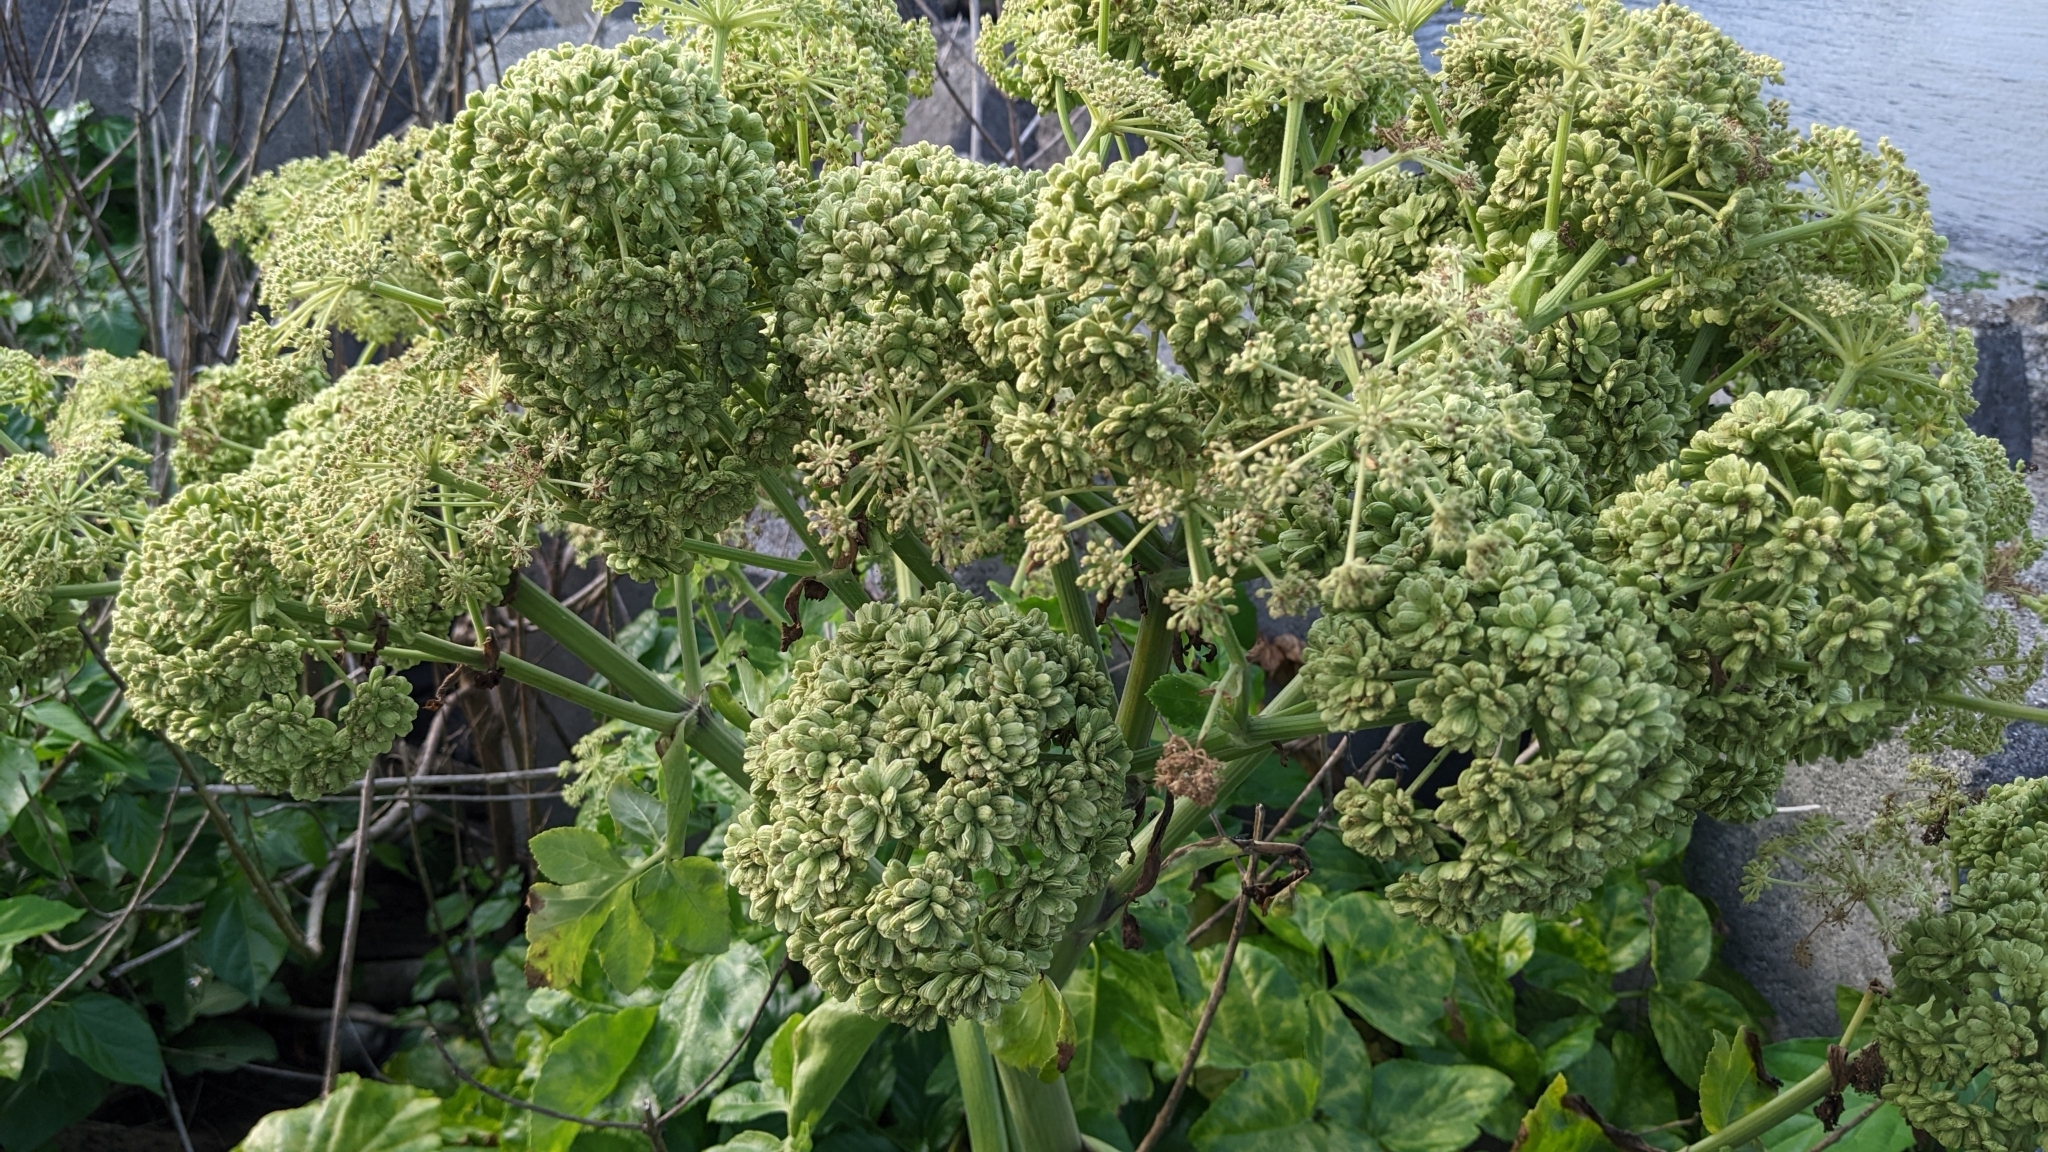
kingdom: Plantae
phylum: Tracheophyta
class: Magnoliopsida
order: Apiales
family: Apiaceae
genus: Angelica
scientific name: Angelica hirsutiflora
